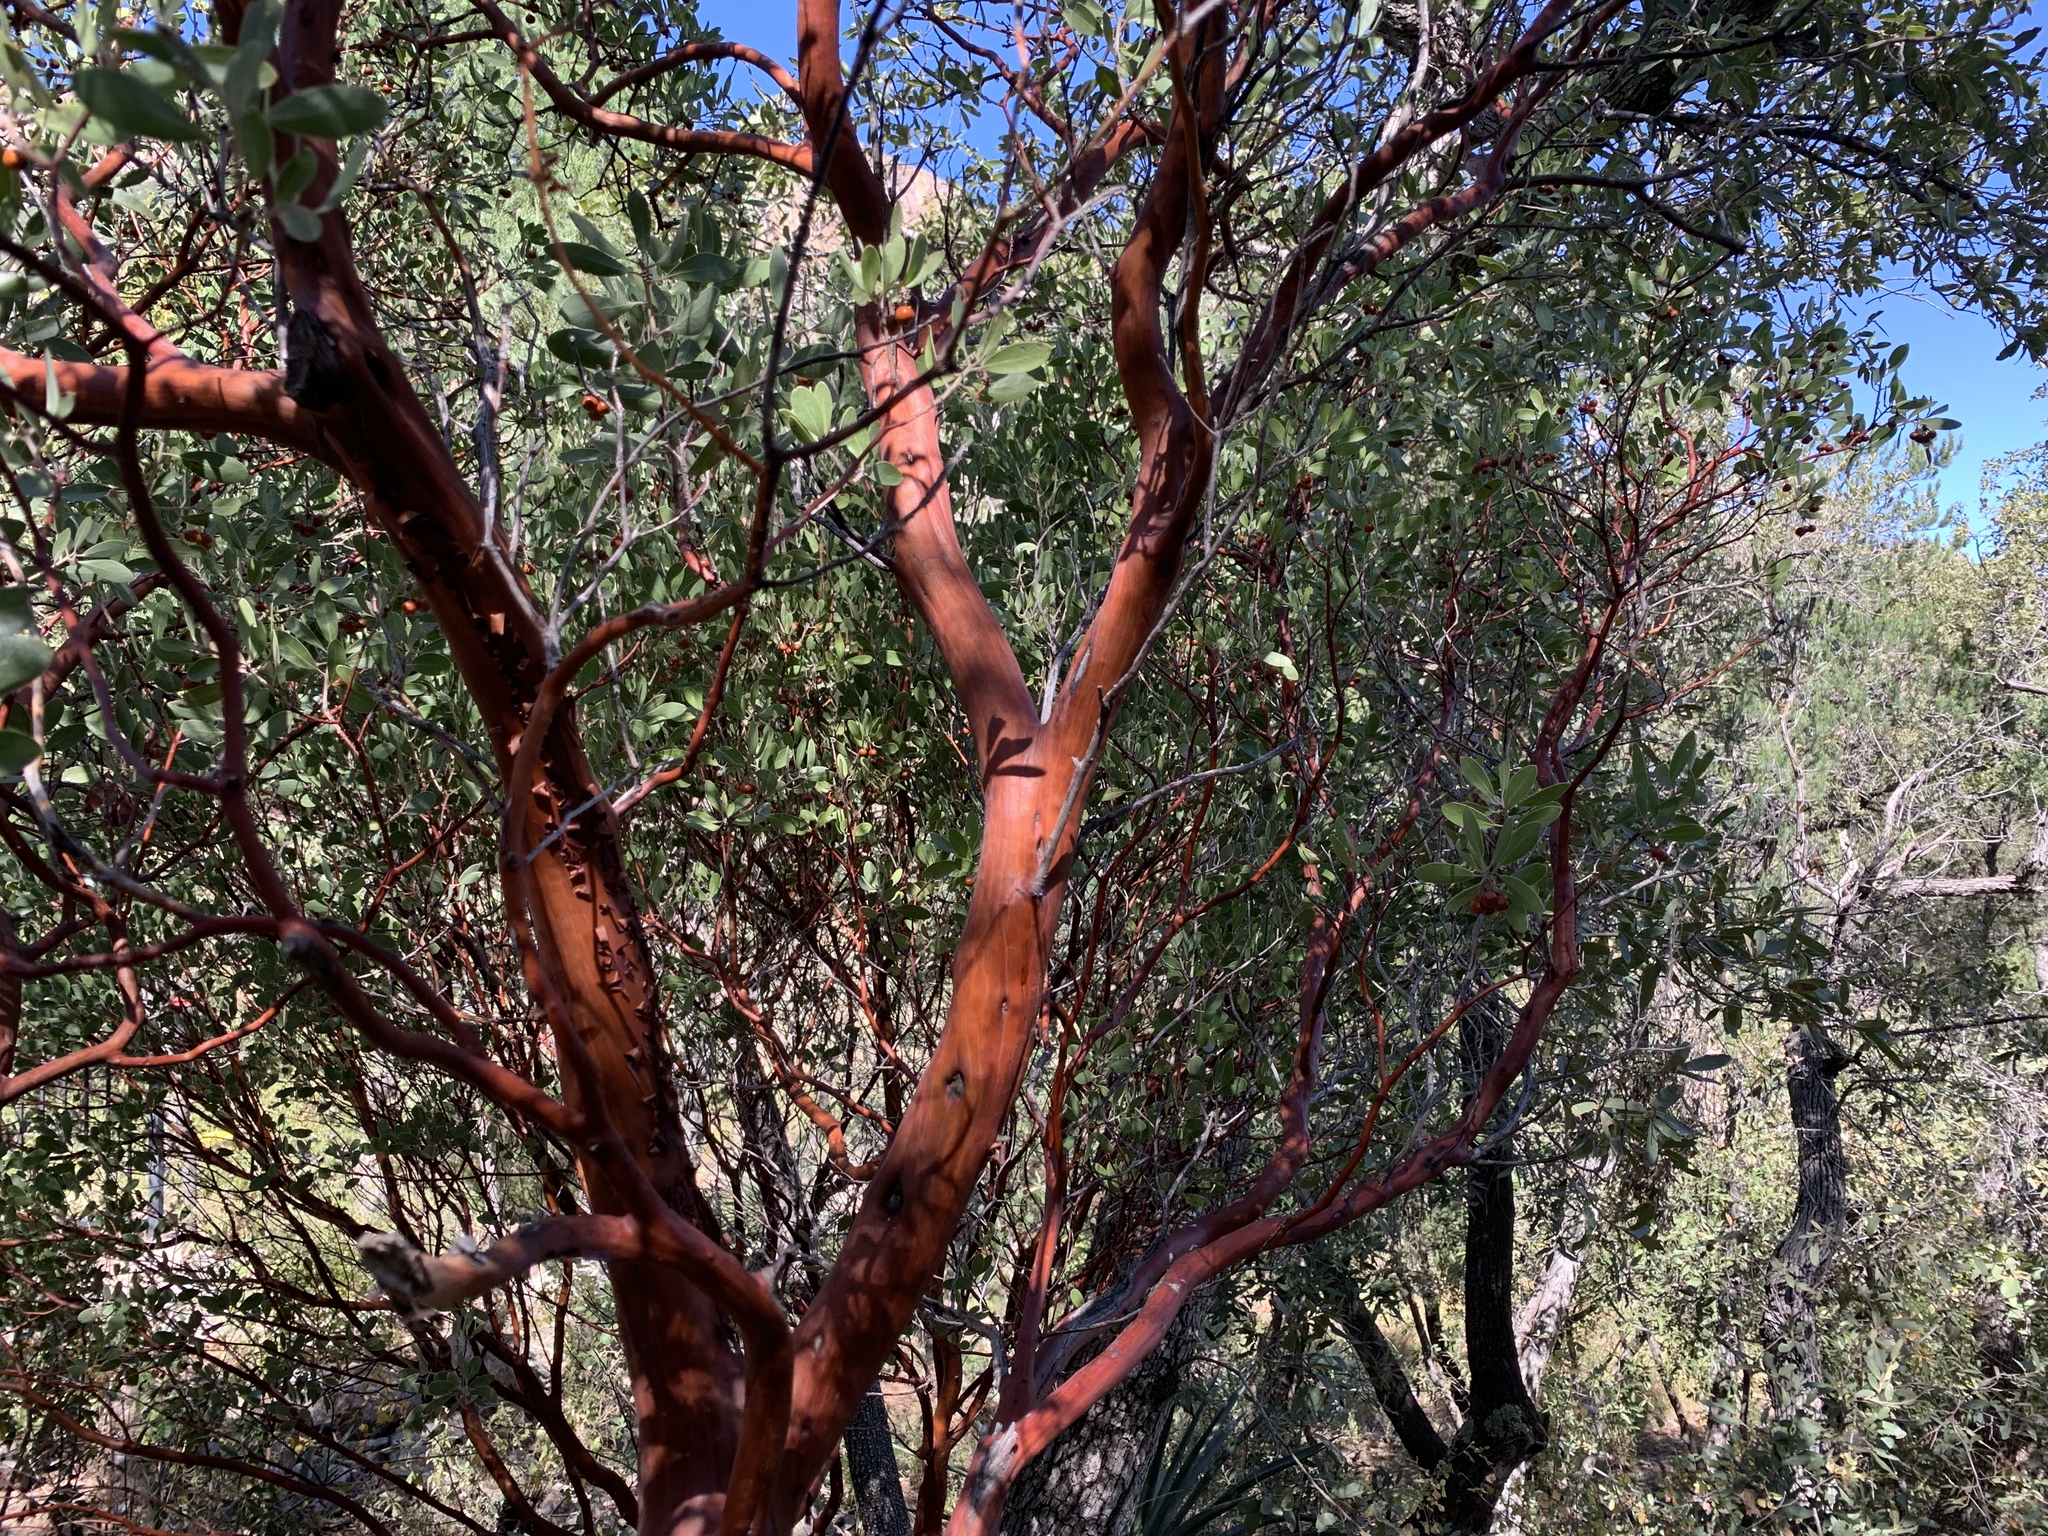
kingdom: Plantae
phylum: Tracheophyta
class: Magnoliopsida
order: Ericales
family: Ericaceae
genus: Arctostaphylos
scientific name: Arctostaphylos pungens
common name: Mexican manzanita
